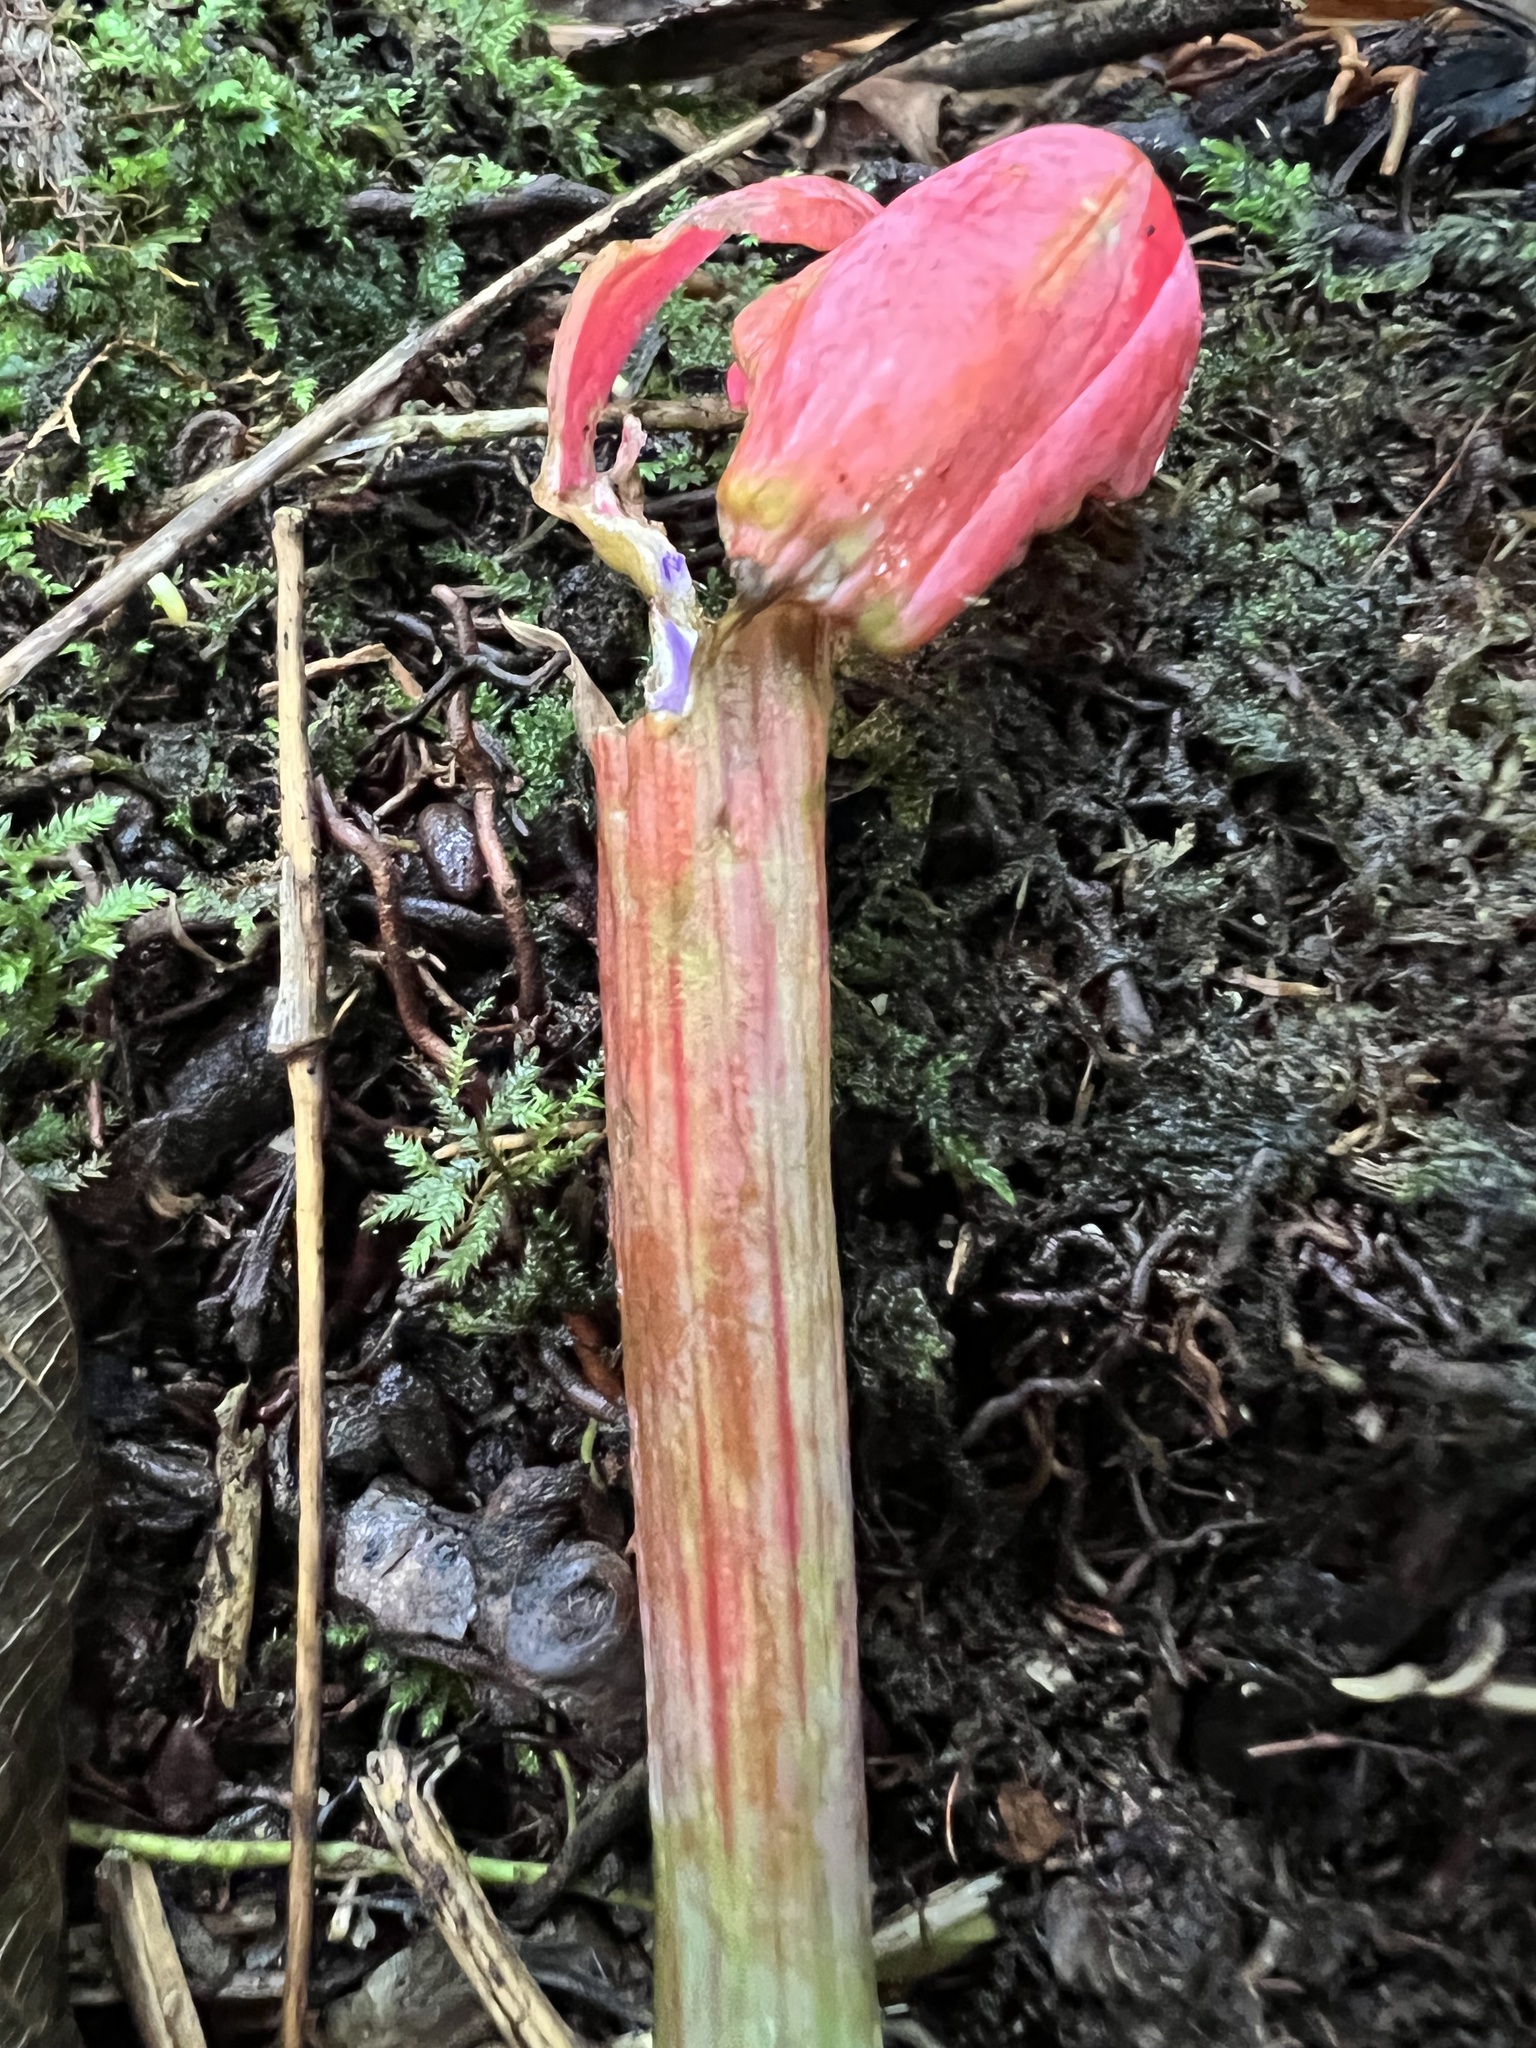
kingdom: Plantae
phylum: Tracheophyta
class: Magnoliopsida
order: Malpighiales
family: Passifloraceae
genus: Passiflora
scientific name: Passiflora lanata
